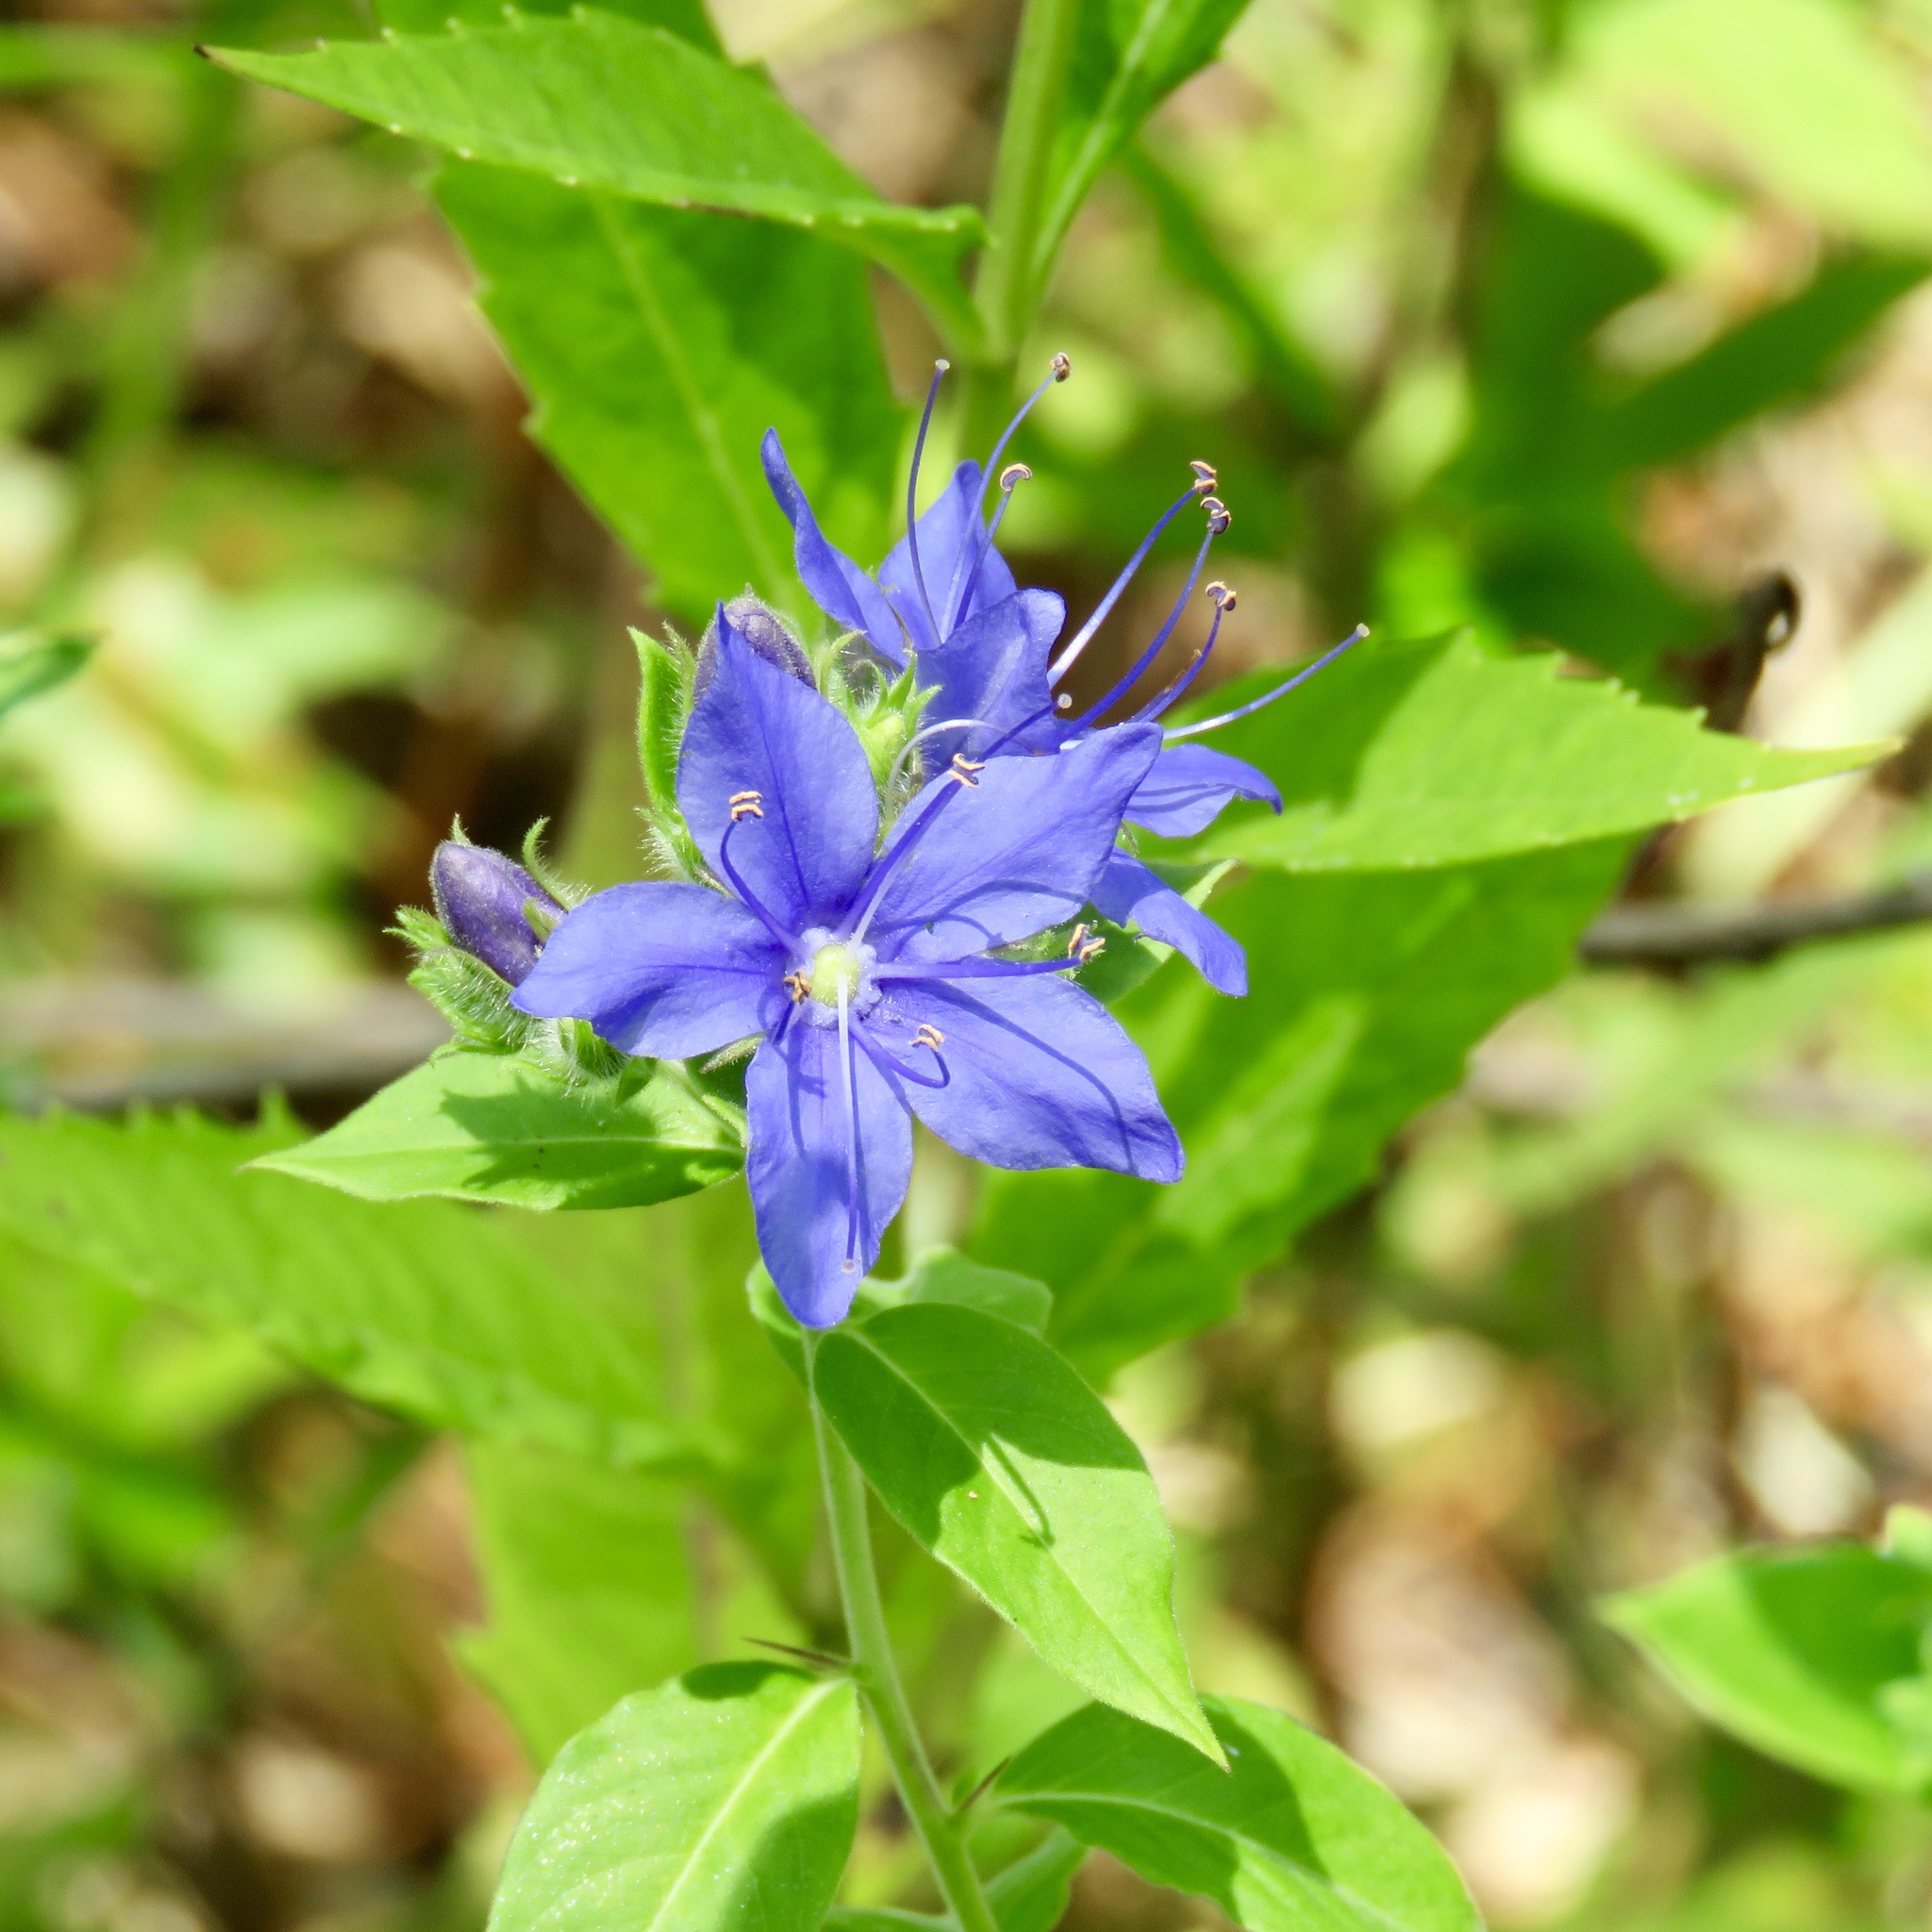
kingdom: Plantae
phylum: Tracheophyta
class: Magnoliopsida
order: Solanales
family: Hydroleaceae
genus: Hydrolea
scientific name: Hydrolea ovata
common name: Ovate false fiddleleaf
